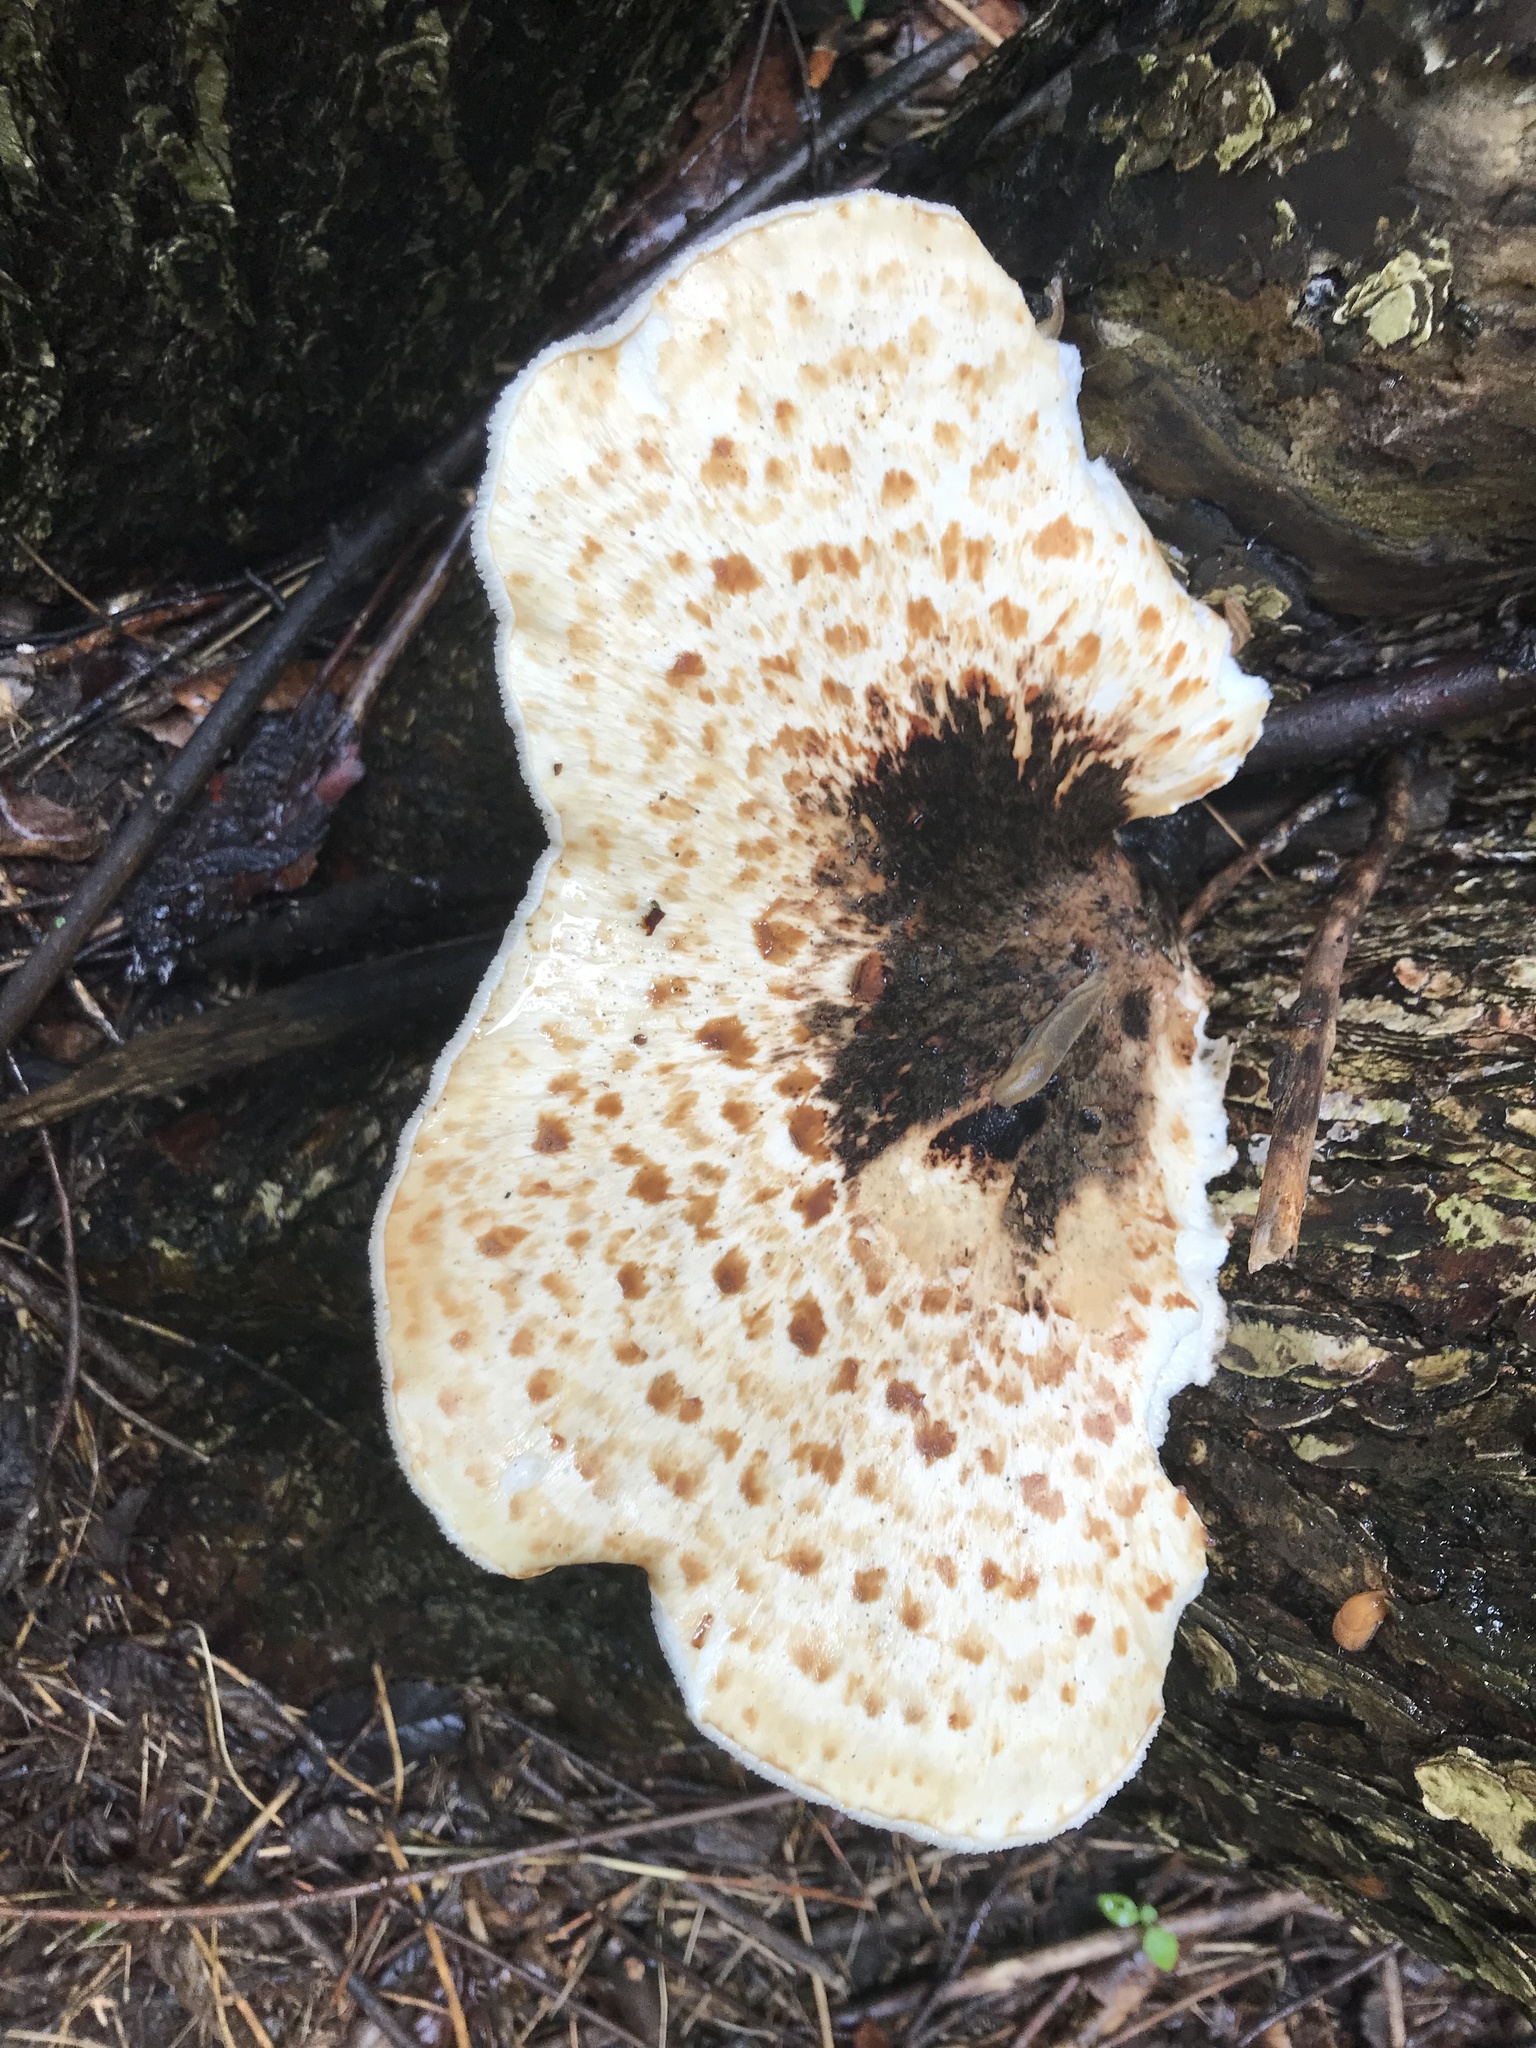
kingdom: Fungi
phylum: Basidiomycota
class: Agaricomycetes
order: Polyporales
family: Polyporaceae
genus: Cerioporus
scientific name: Cerioporus squamosus
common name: Dryad's saddle
